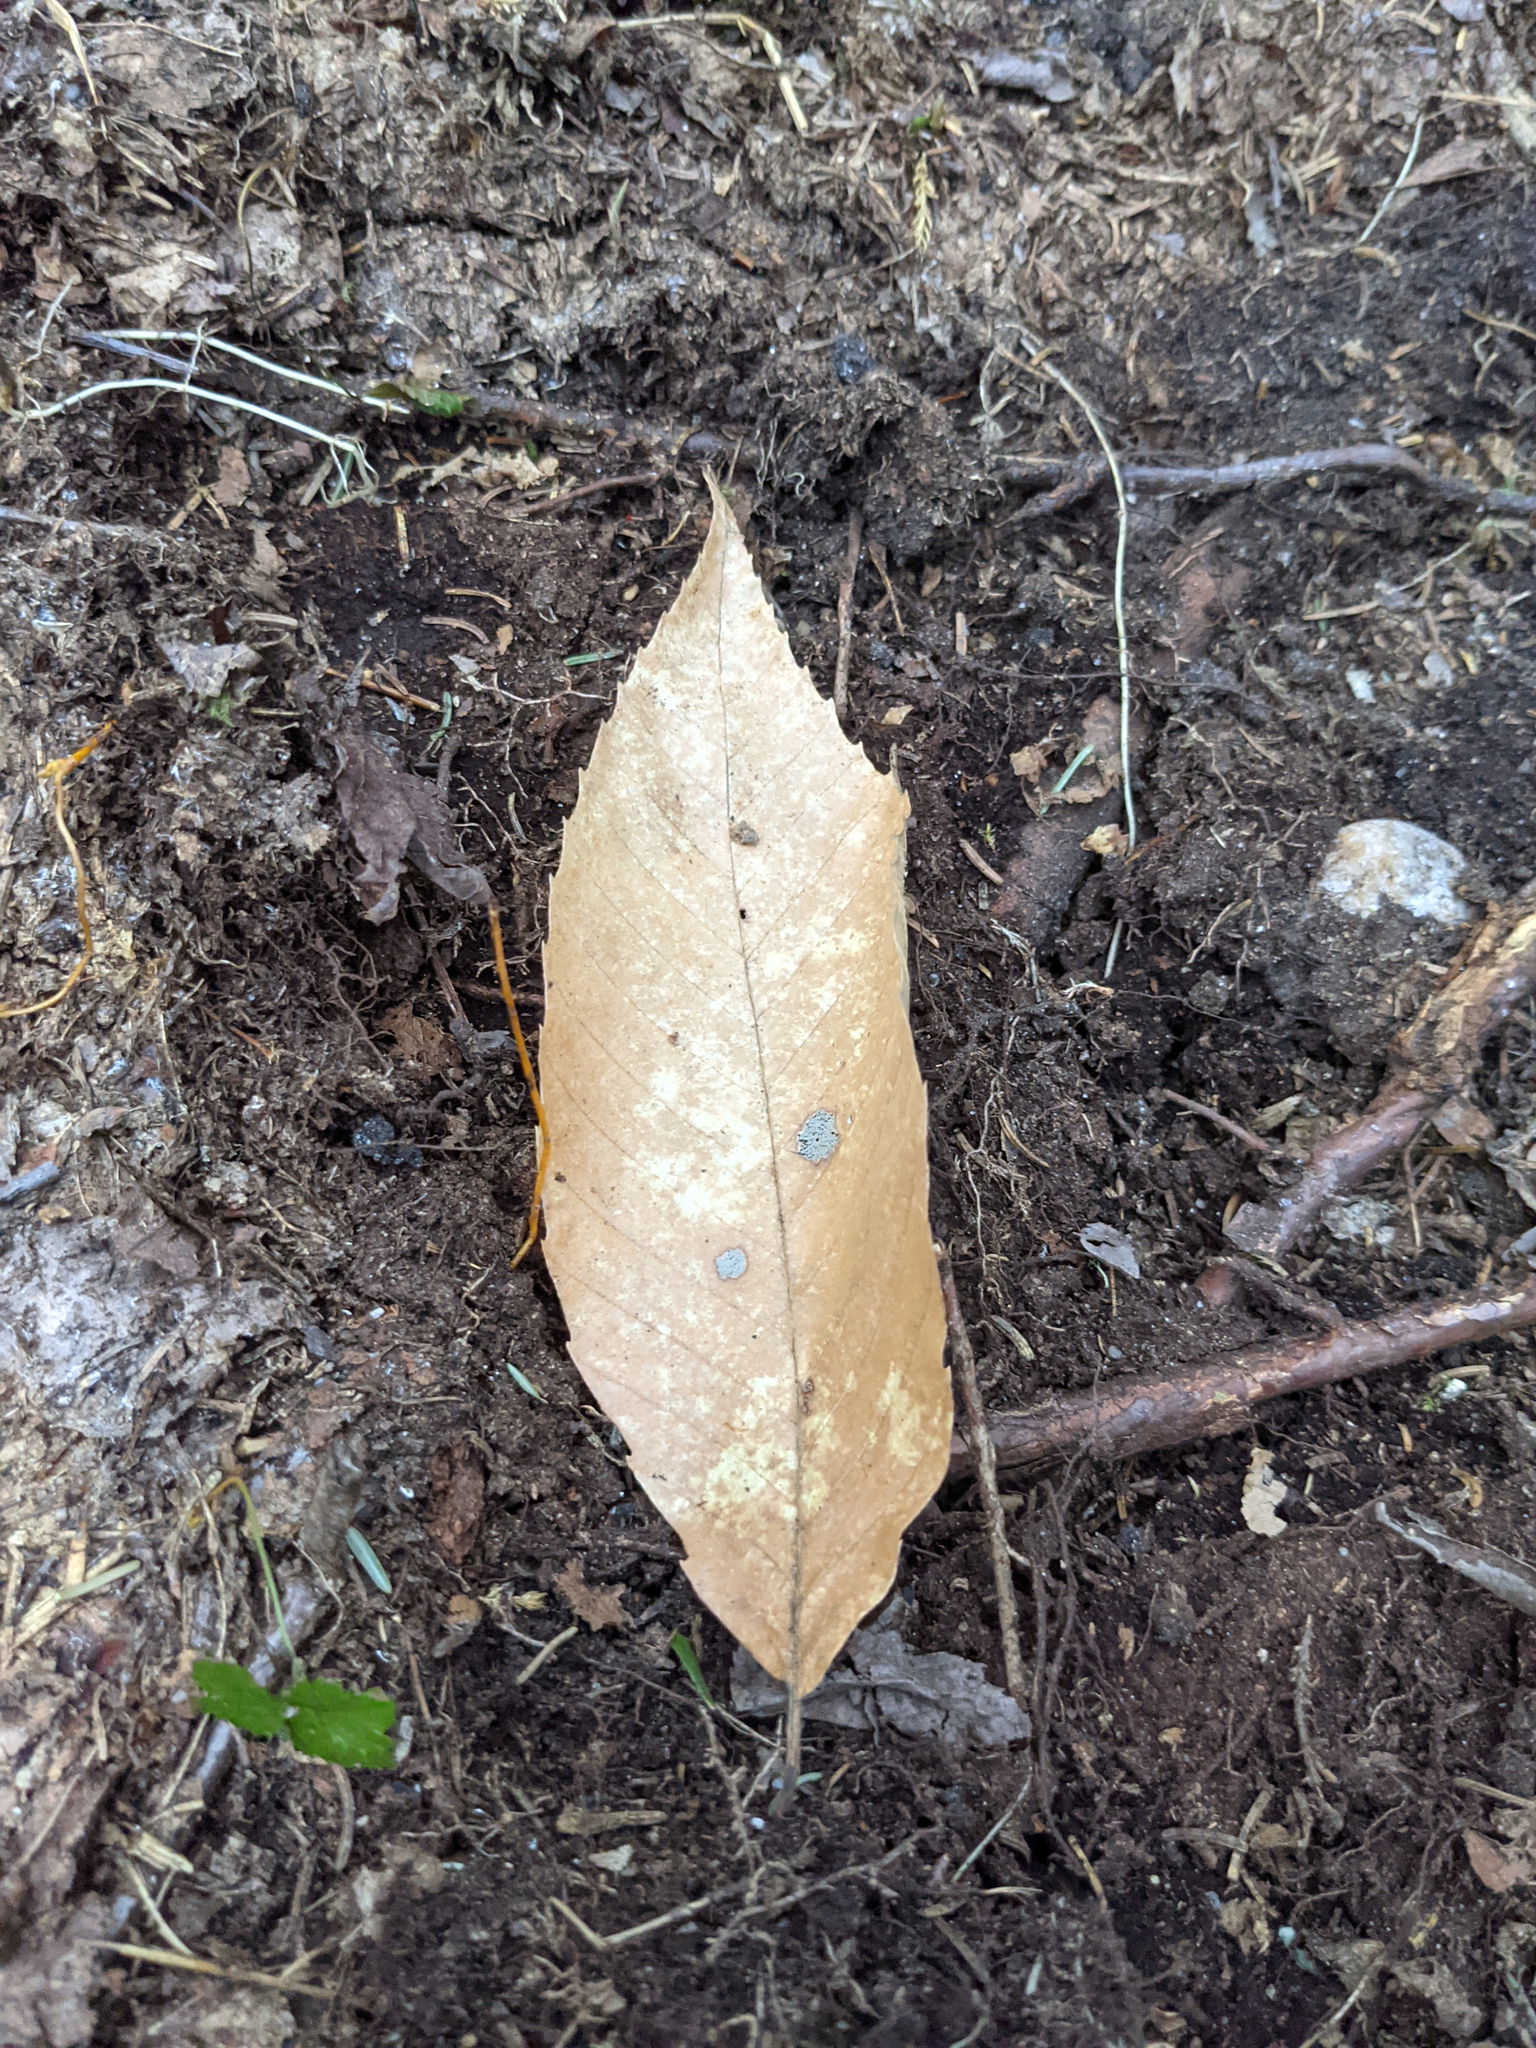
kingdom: Plantae
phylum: Tracheophyta
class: Magnoliopsida
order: Fagales
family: Fagaceae
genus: Fagus
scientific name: Fagus grandifolia
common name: American beech
